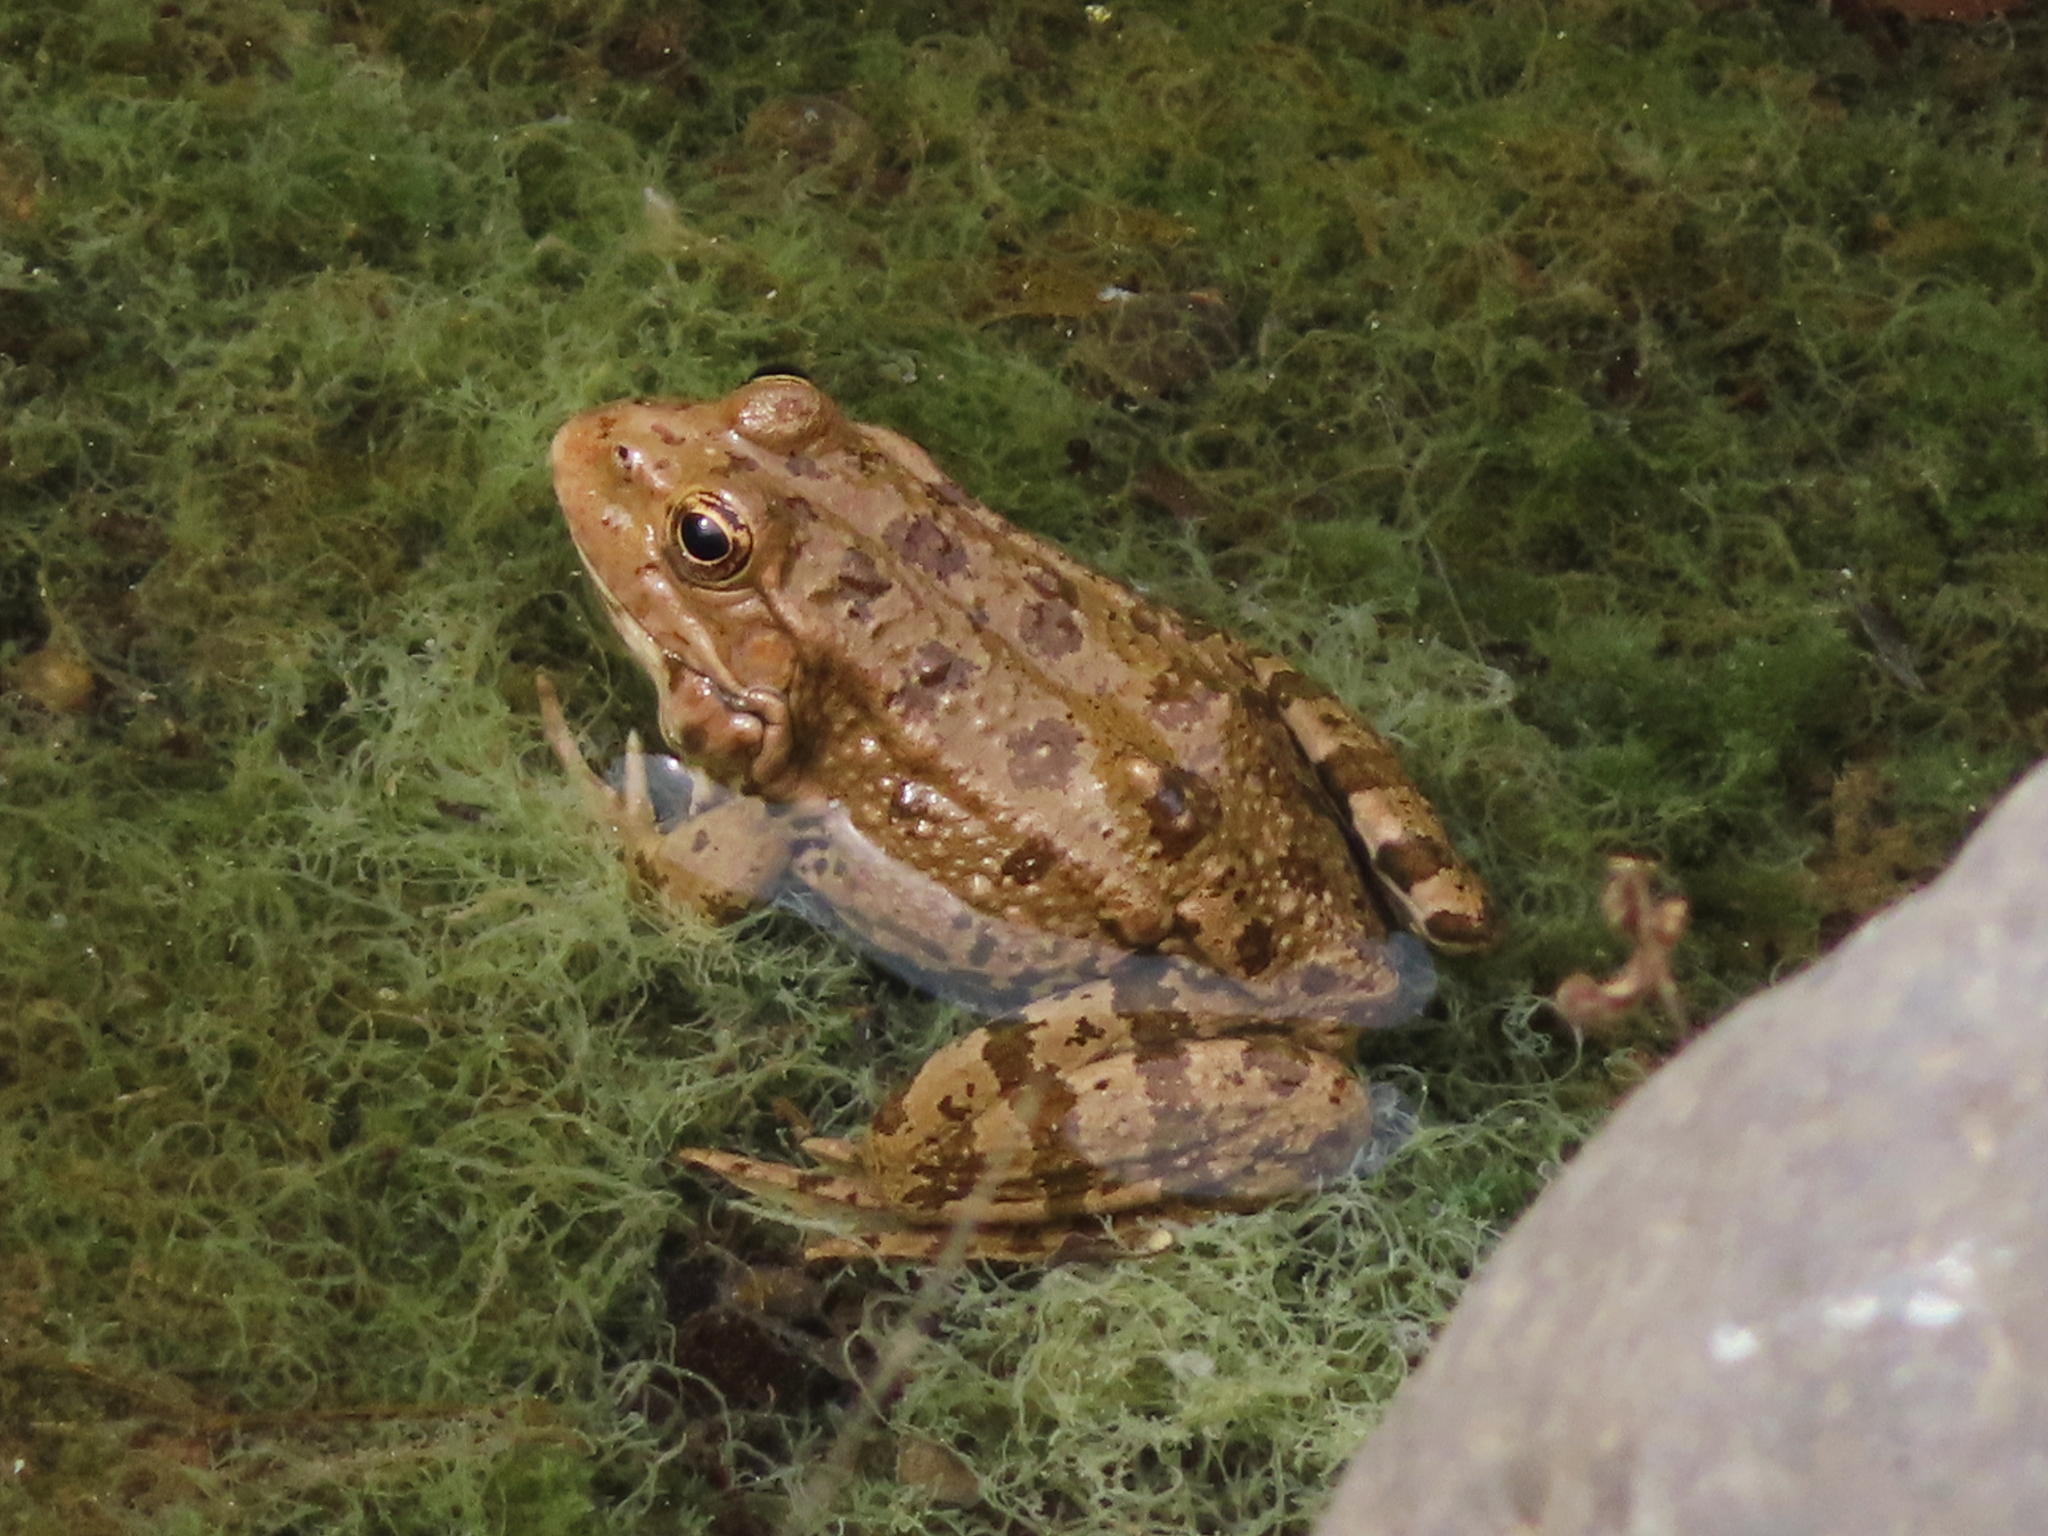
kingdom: Animalia
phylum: Chordata
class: Amphibia
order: Anura
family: Ranidae
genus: Pelophylax
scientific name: Pelophylax ridibundus
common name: Marsh frog
